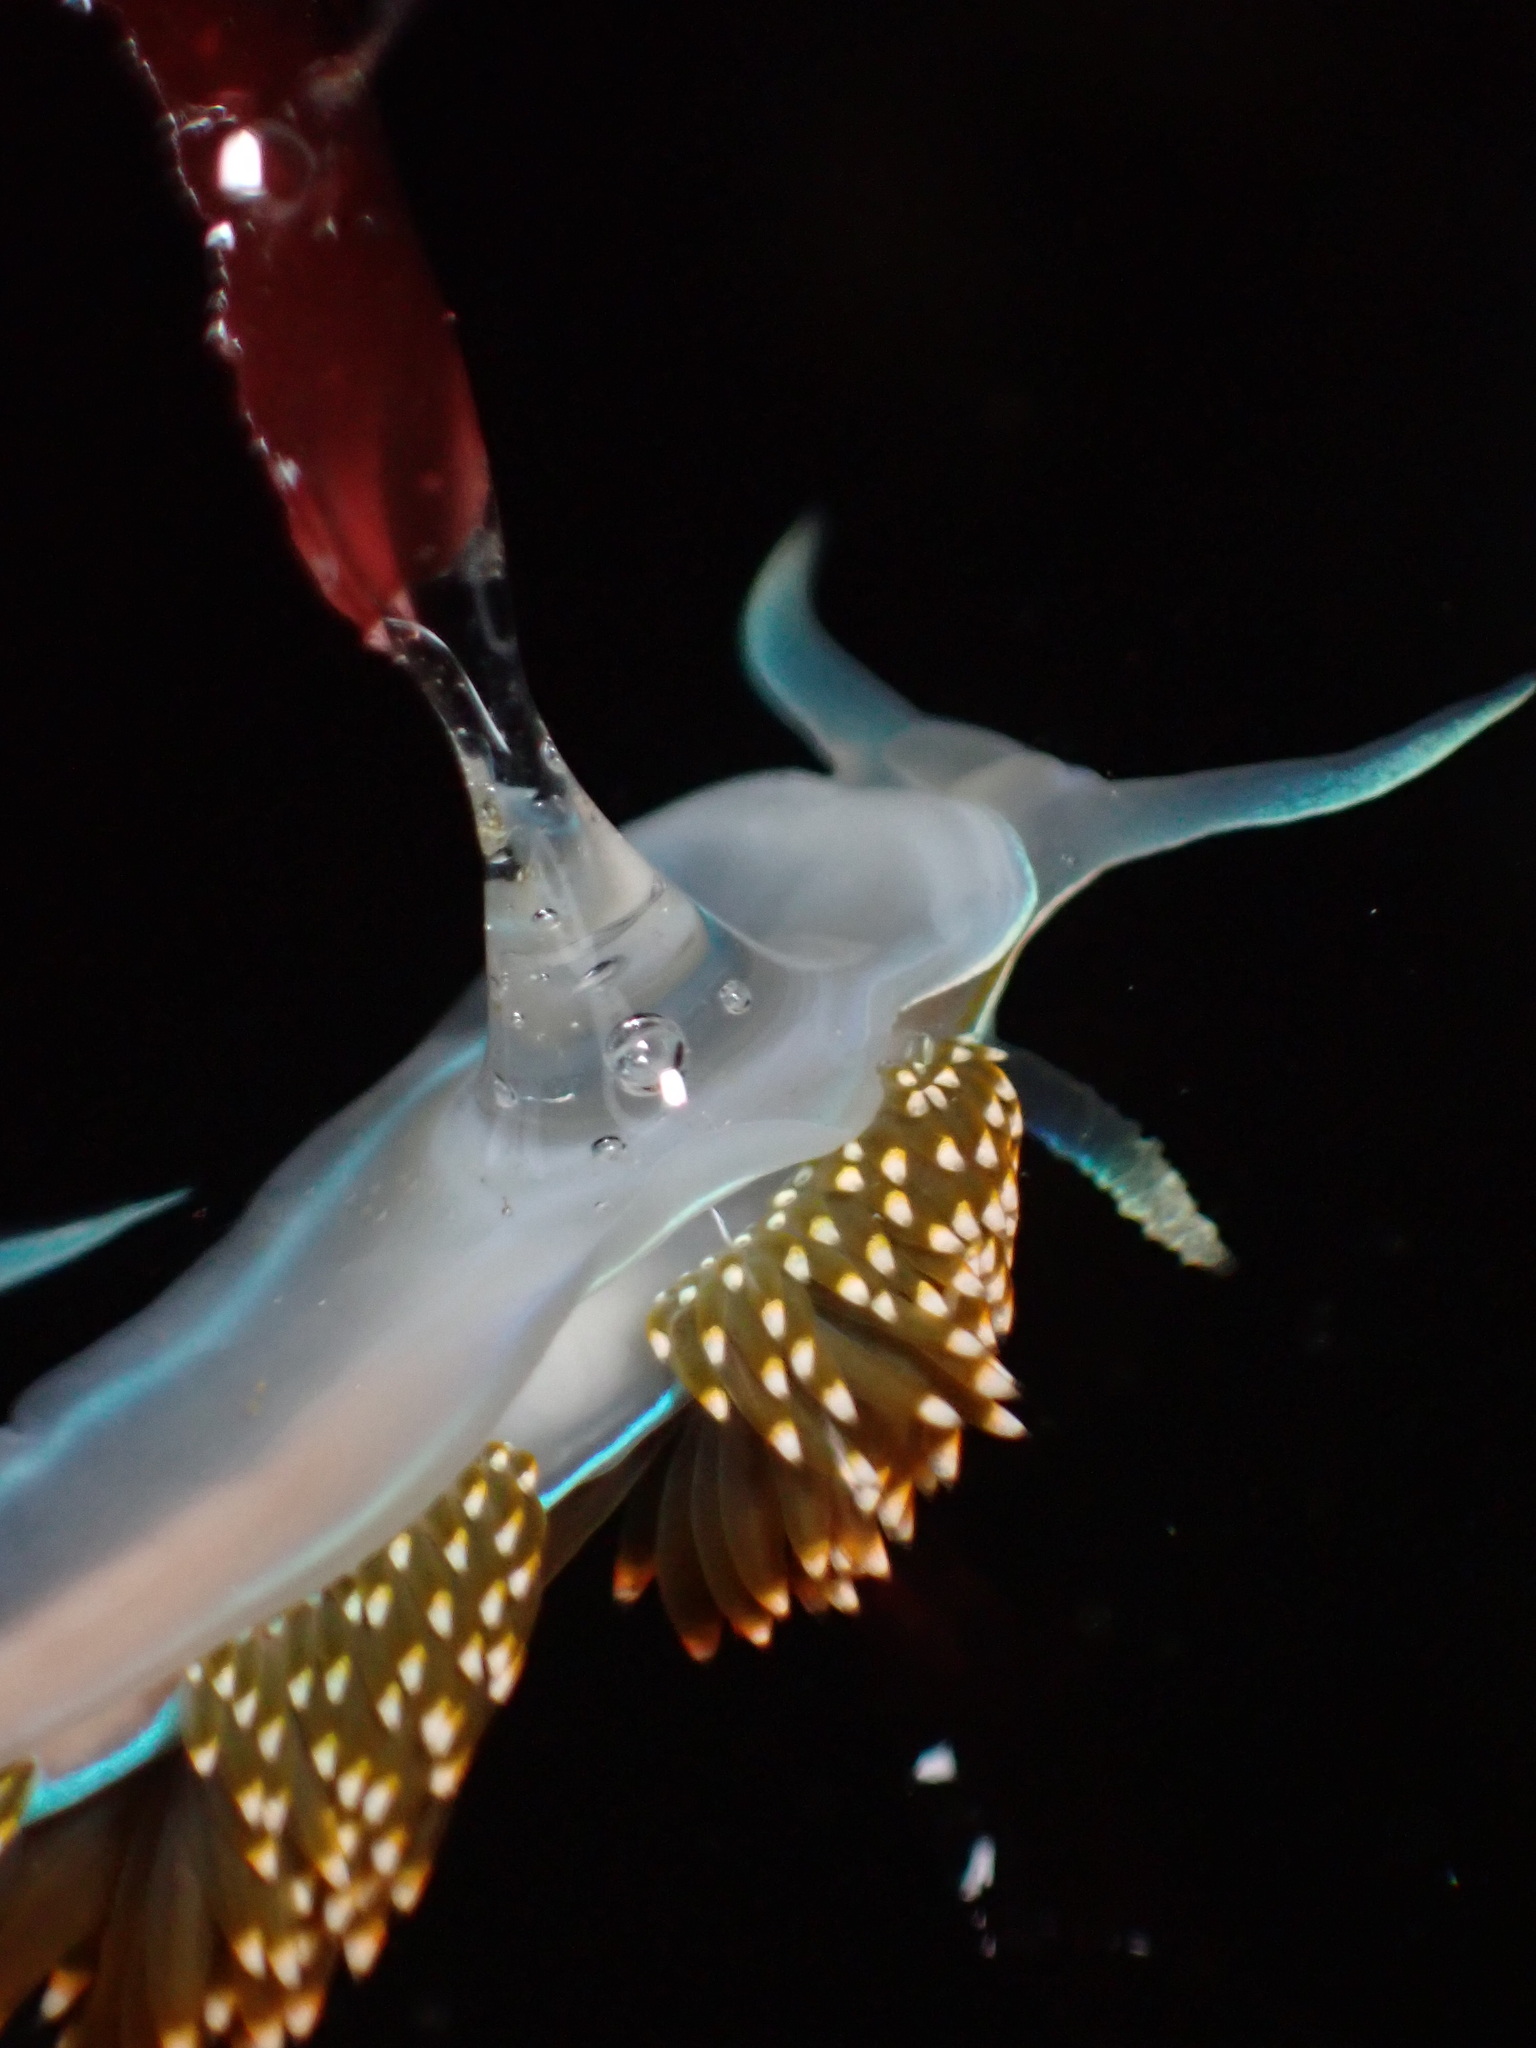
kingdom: Animalia
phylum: Mollusca
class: Gastropoda
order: Nudibranchia
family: Myrrhinidae
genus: Hermissenda
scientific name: Hermissenda opalescens
